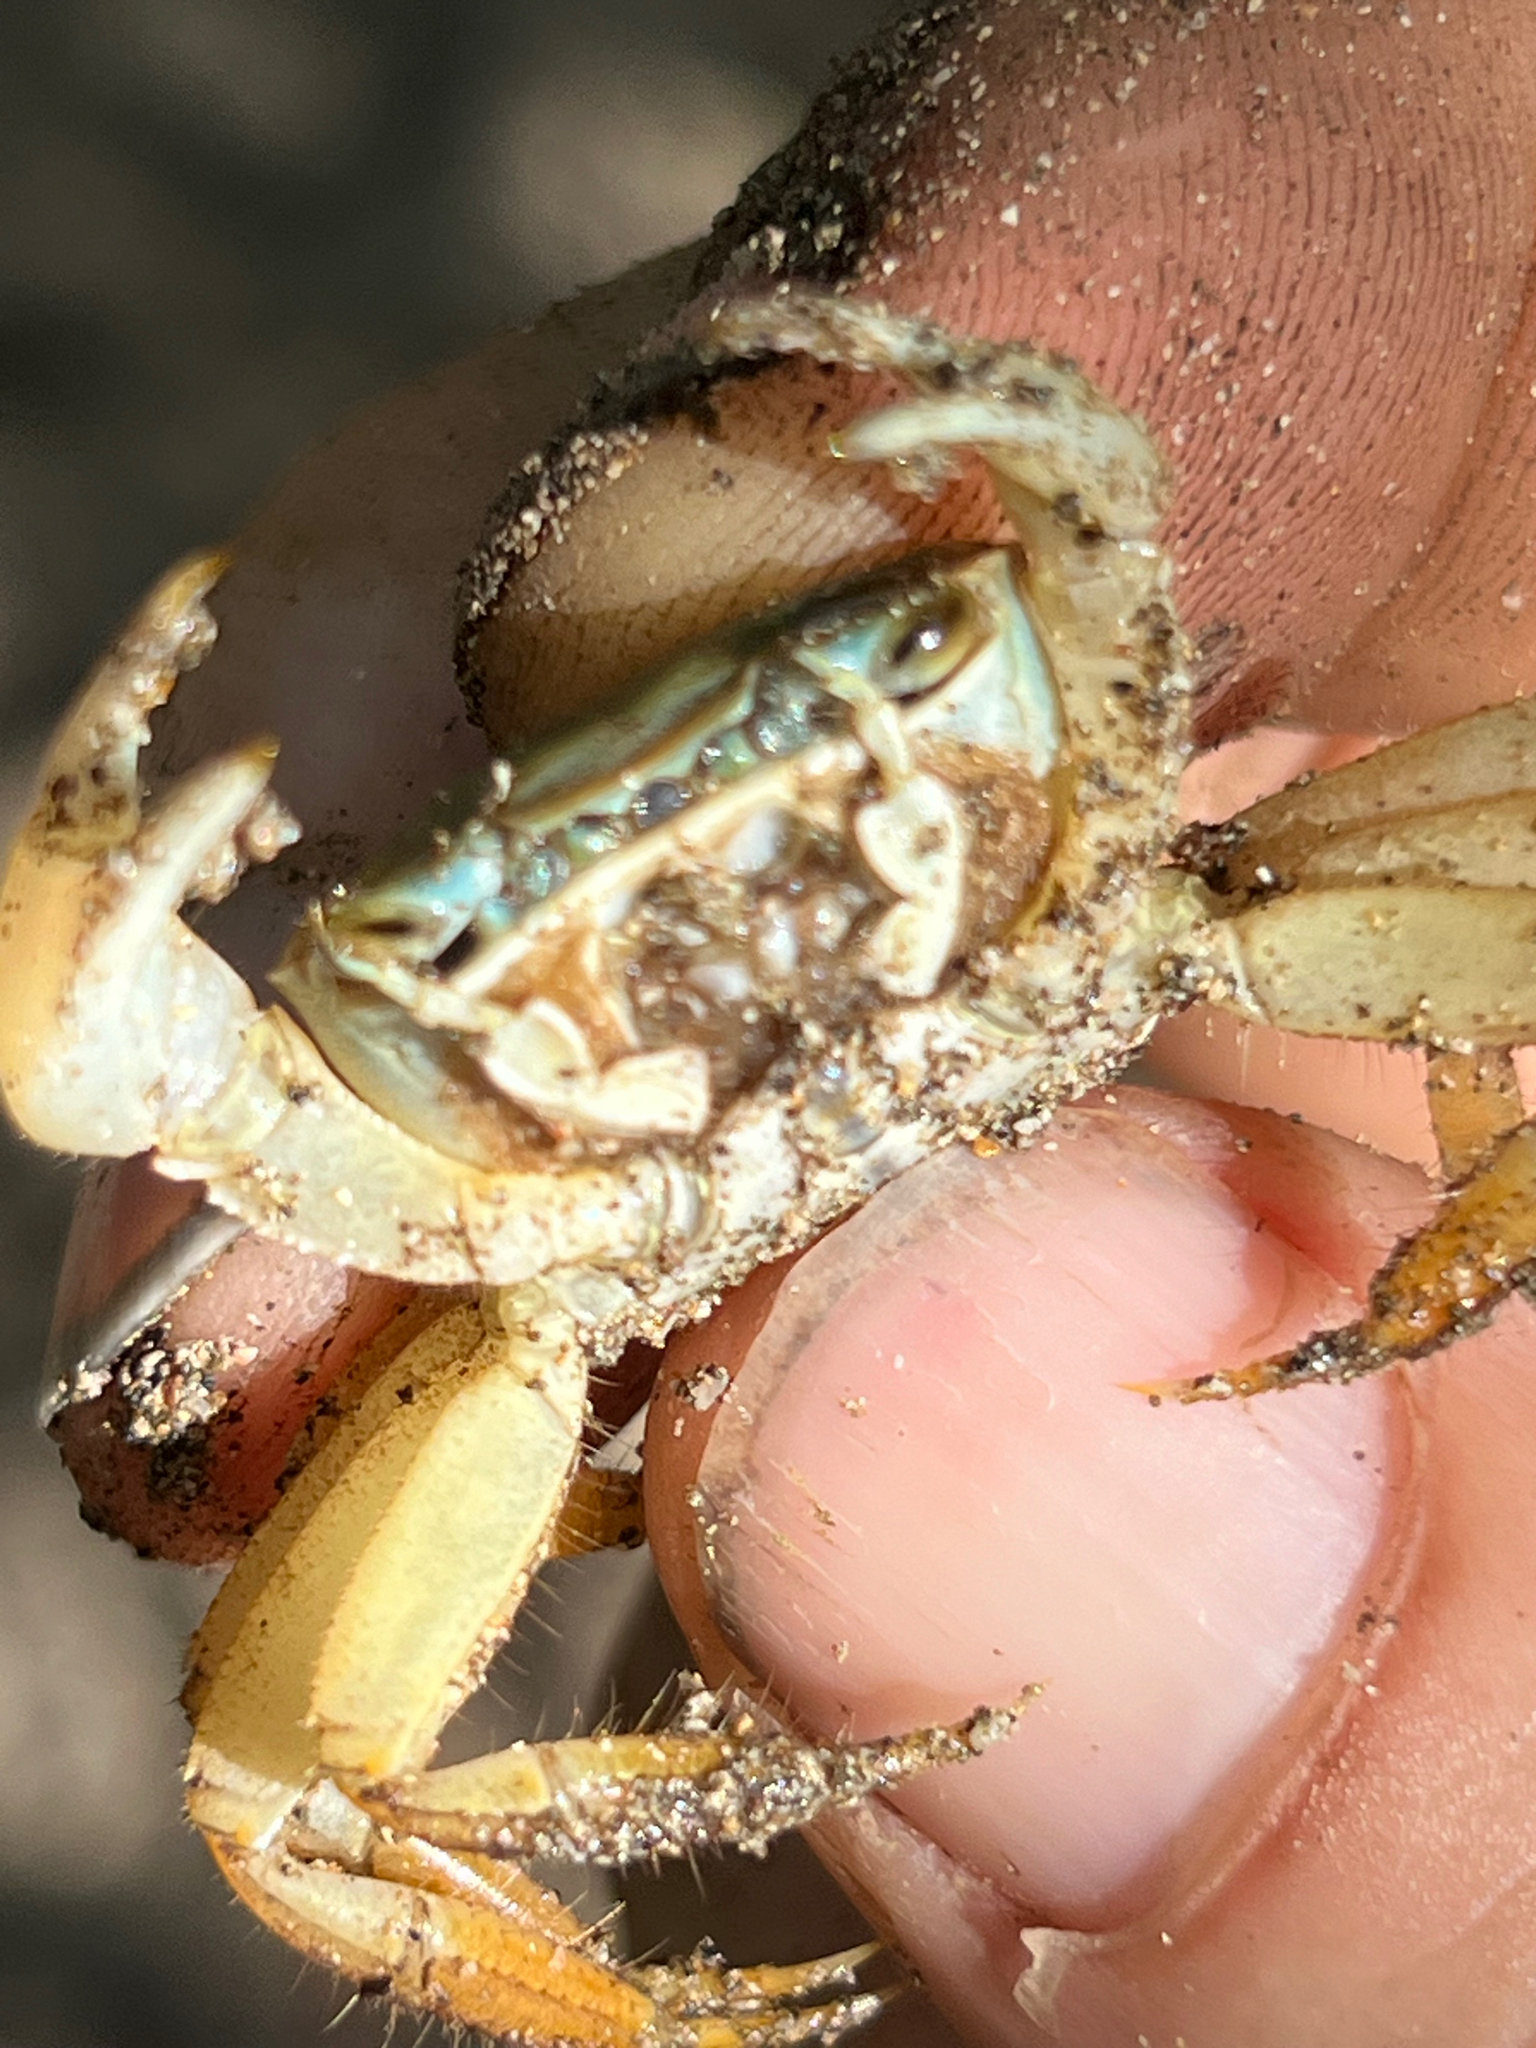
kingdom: Animalia
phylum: Arthropoda
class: Malacostraca
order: Decapoda
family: Gecarcinidae
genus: Cardisoma
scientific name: Cardisoma crassum
